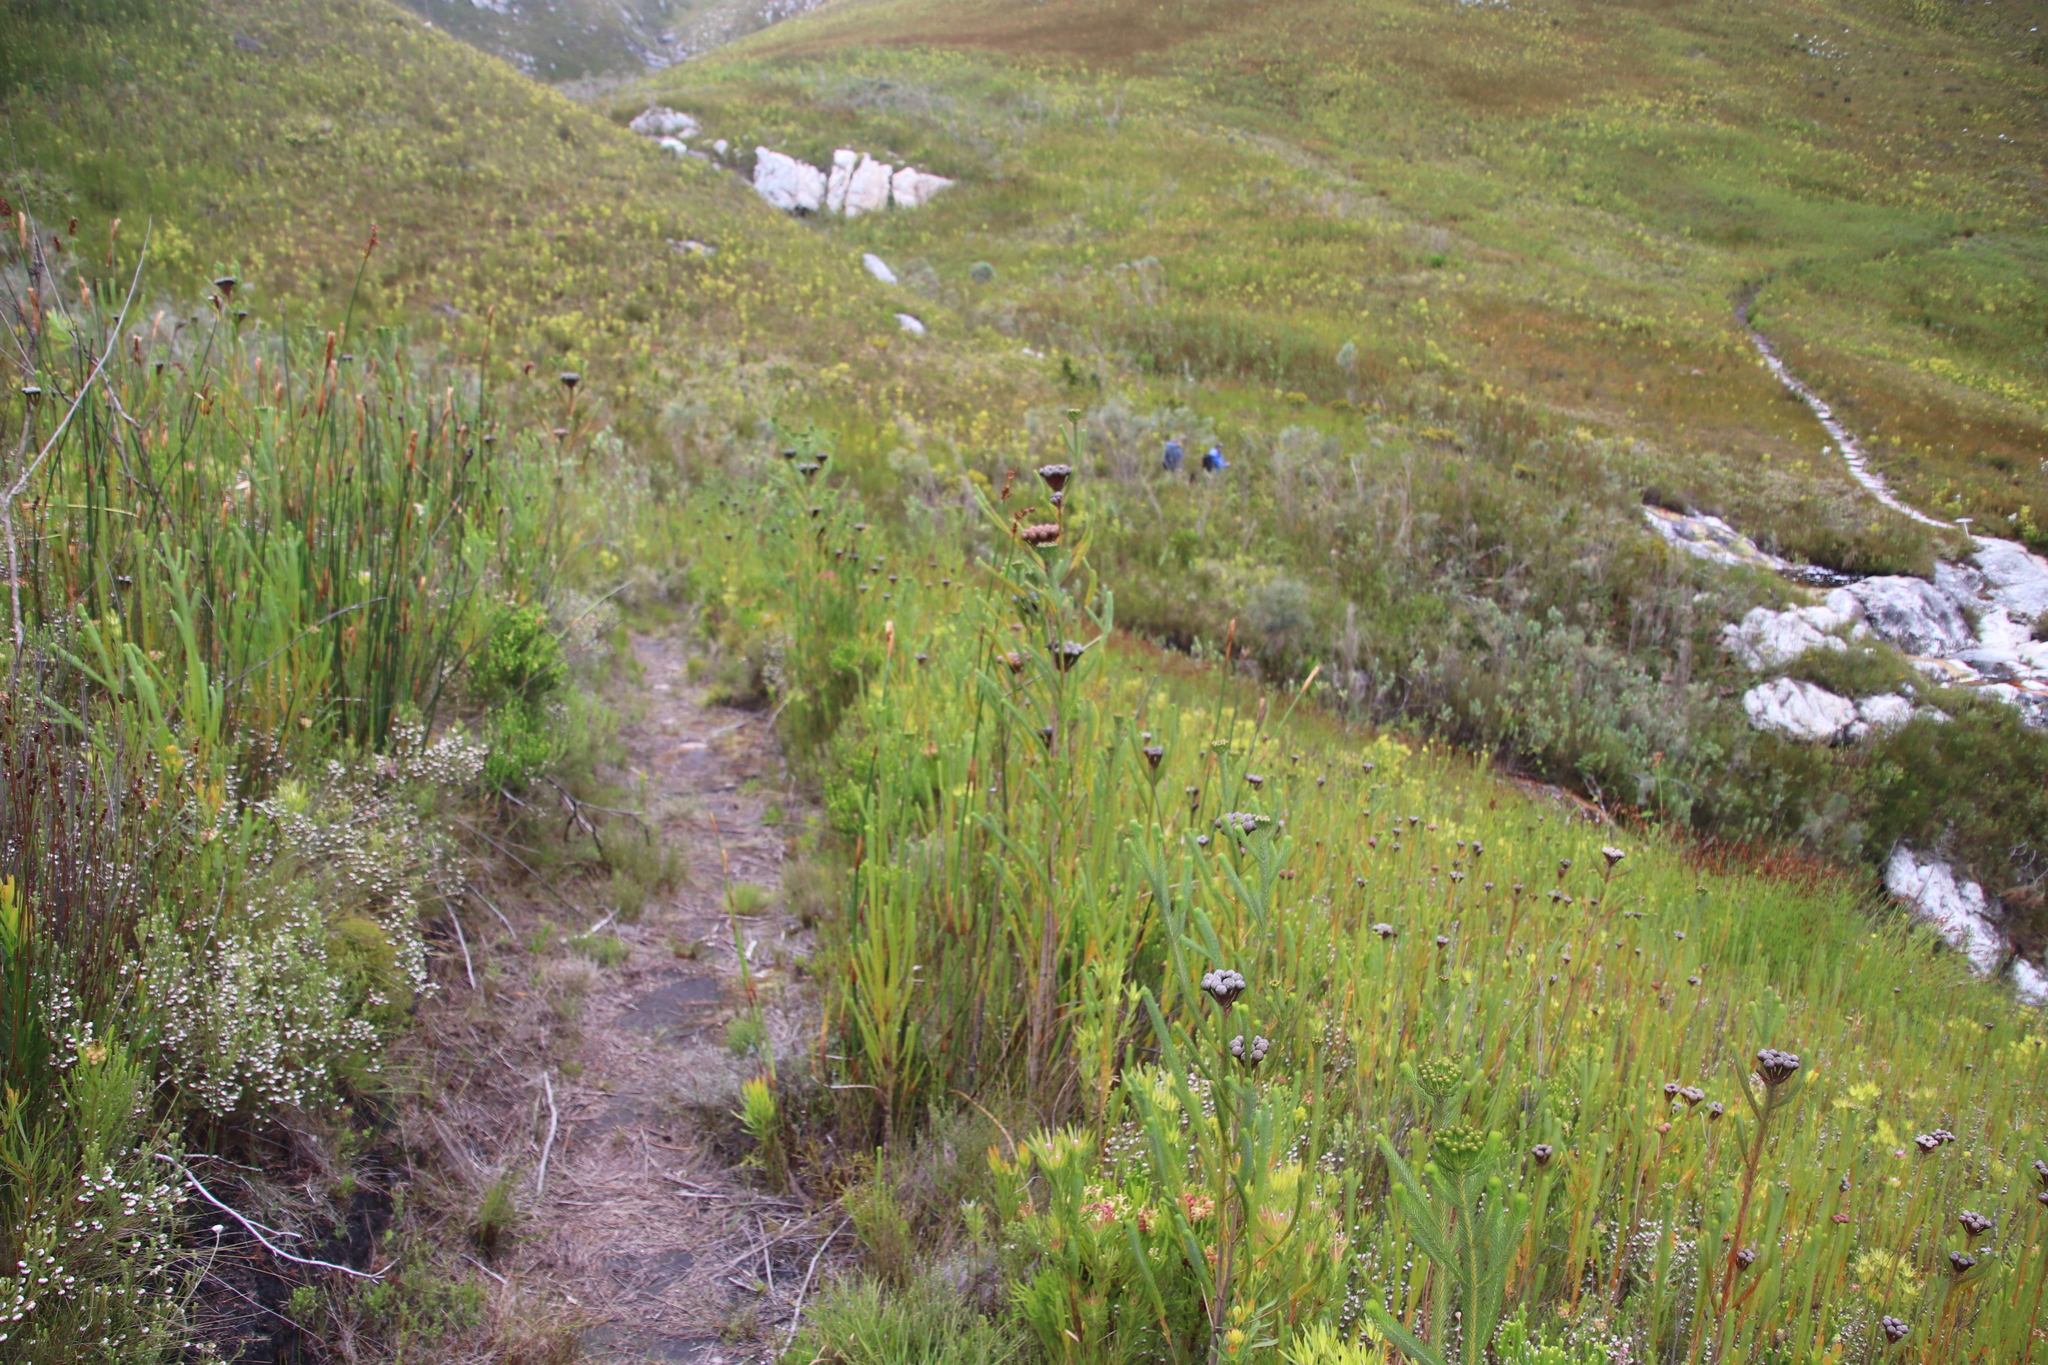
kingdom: Plantae
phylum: Tracheophyta
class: Magnoliopsida
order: Bruniales
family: Bruniaceae
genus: Berzelia
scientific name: Berzelia albiflora
